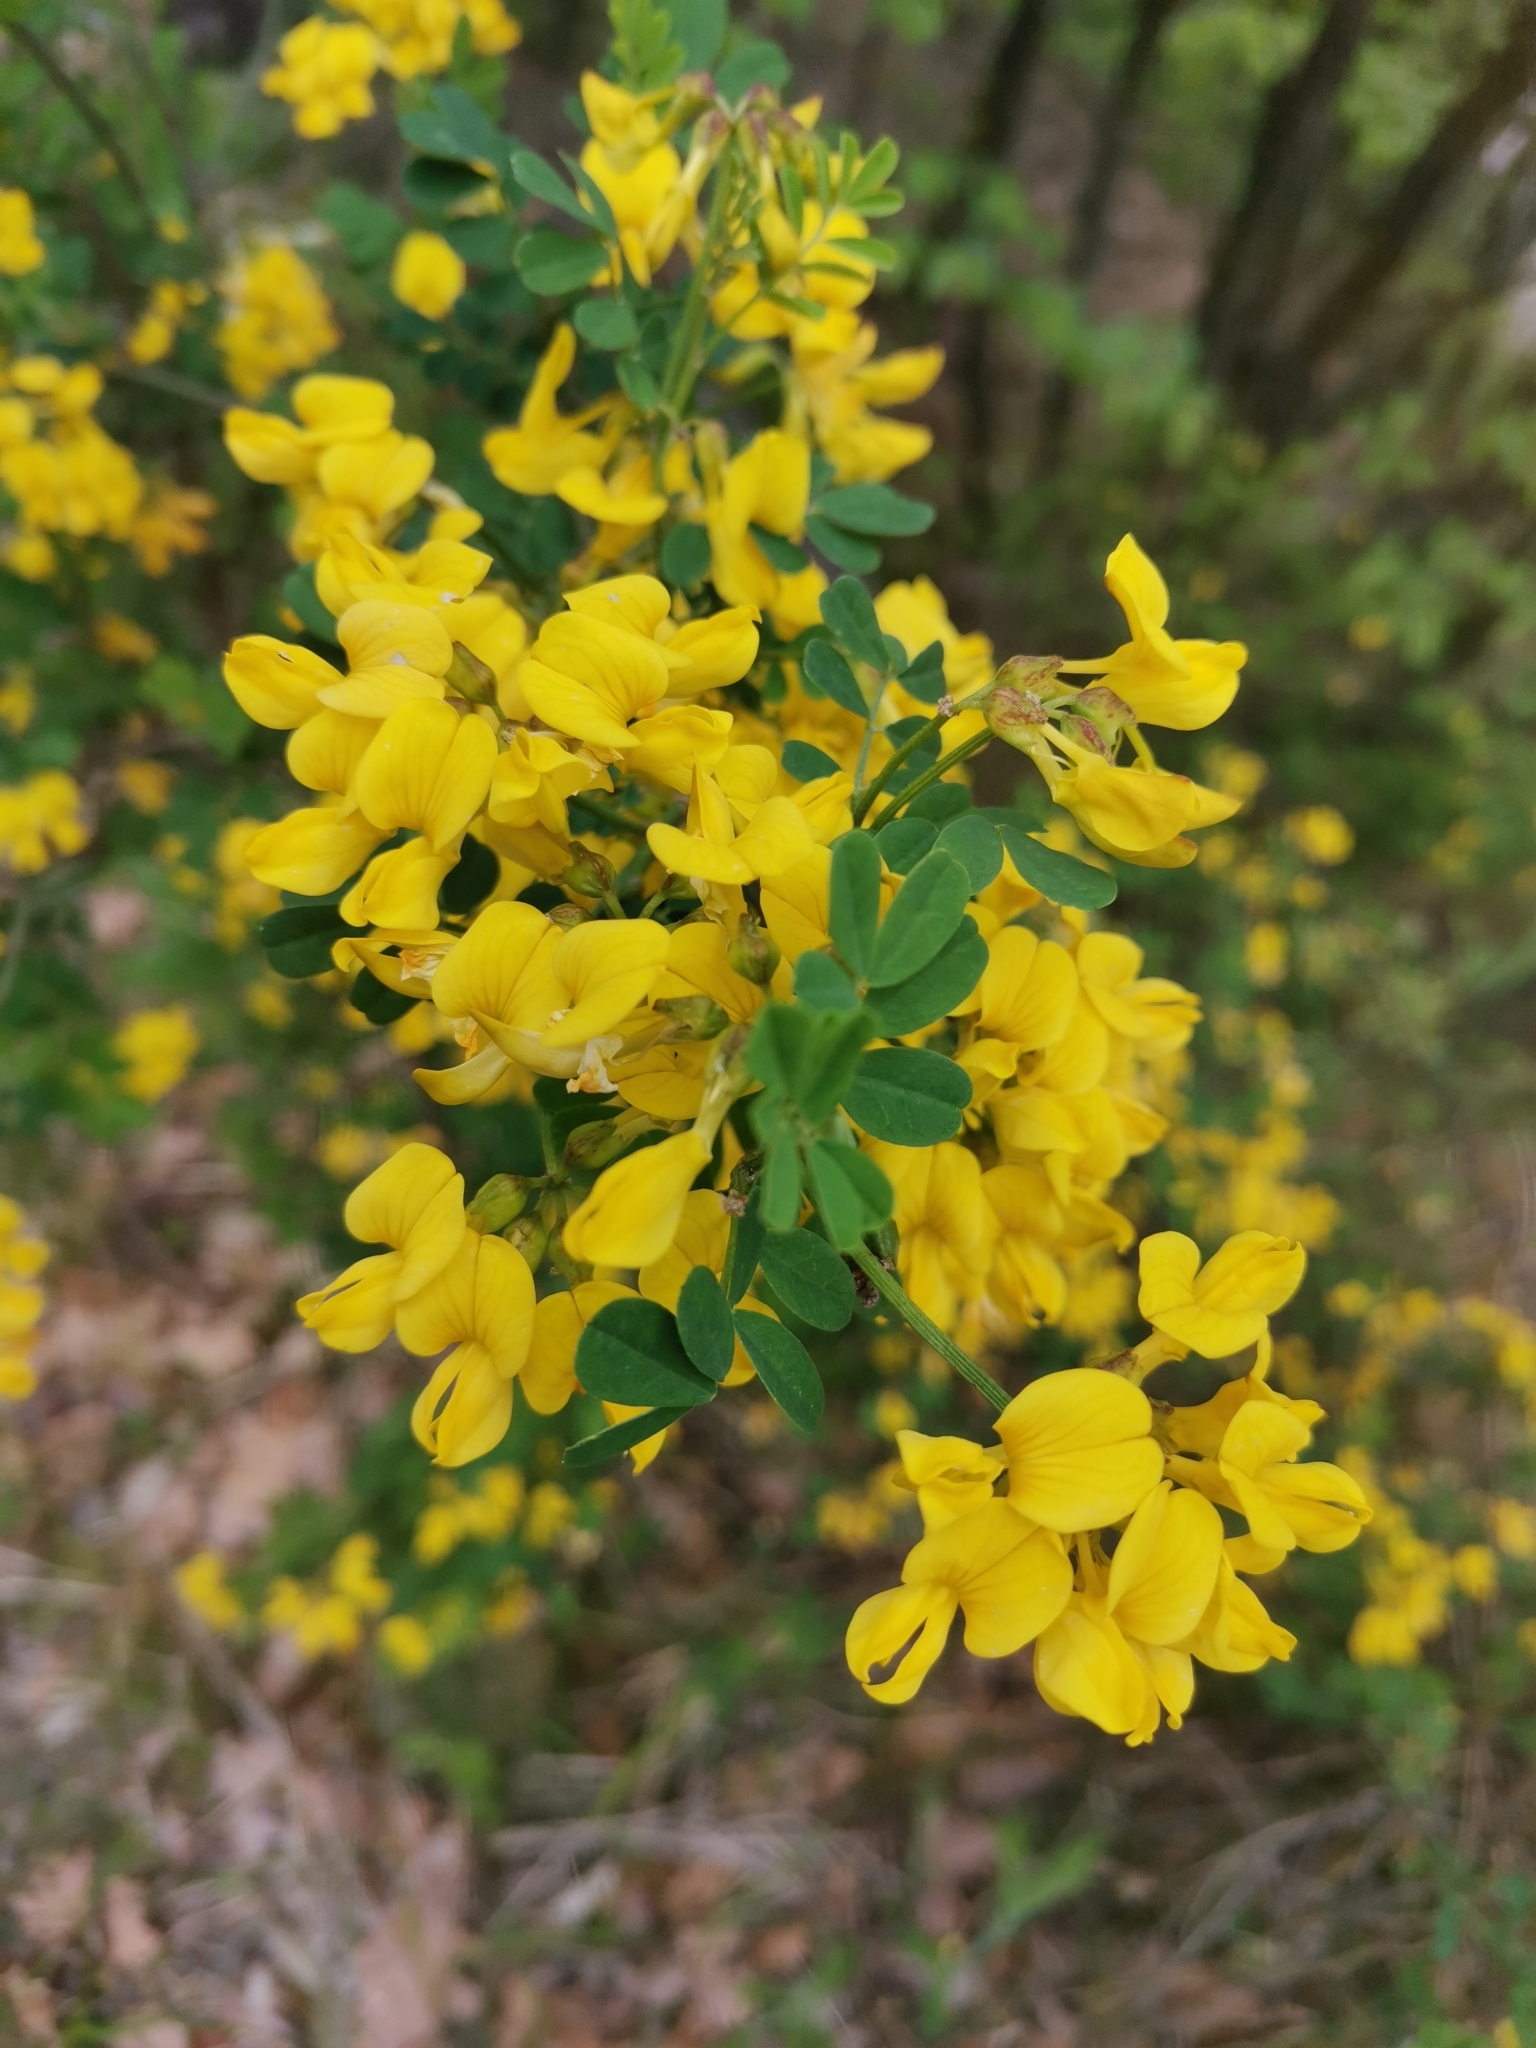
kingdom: Plantae
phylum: Tracheophyta
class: Magnoliopsida
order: Fabales
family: Fabaceae
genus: Hippocrepis
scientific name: Hippocrepis emerus
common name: Scorpion senna
